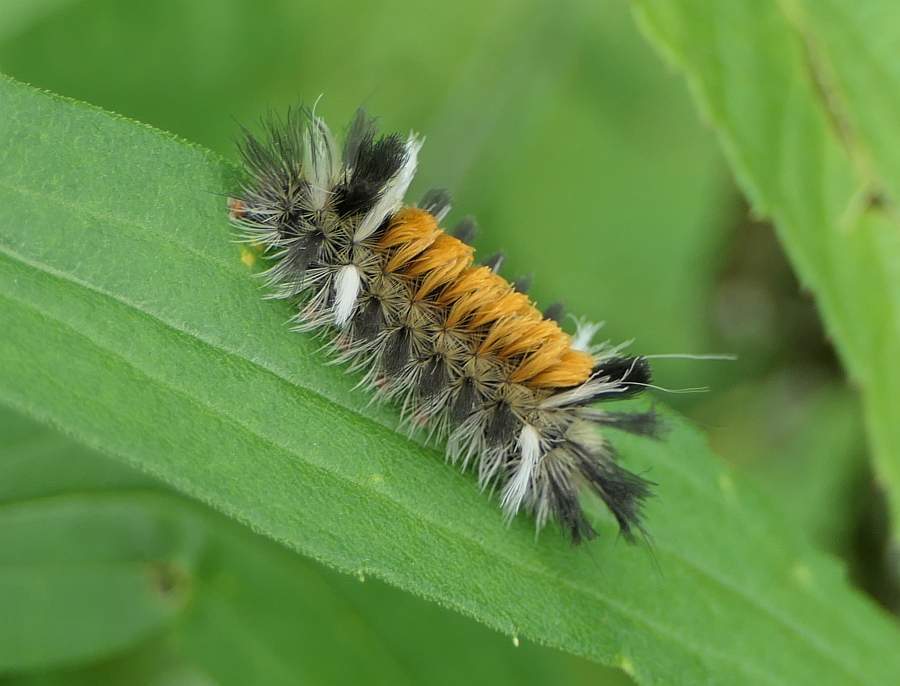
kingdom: Animalia
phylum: Arthropoda
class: Insecta
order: Lepidoptera
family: Erebidae
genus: Euchaetes
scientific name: Euchaetes egle
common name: Milkweed tussock moth
